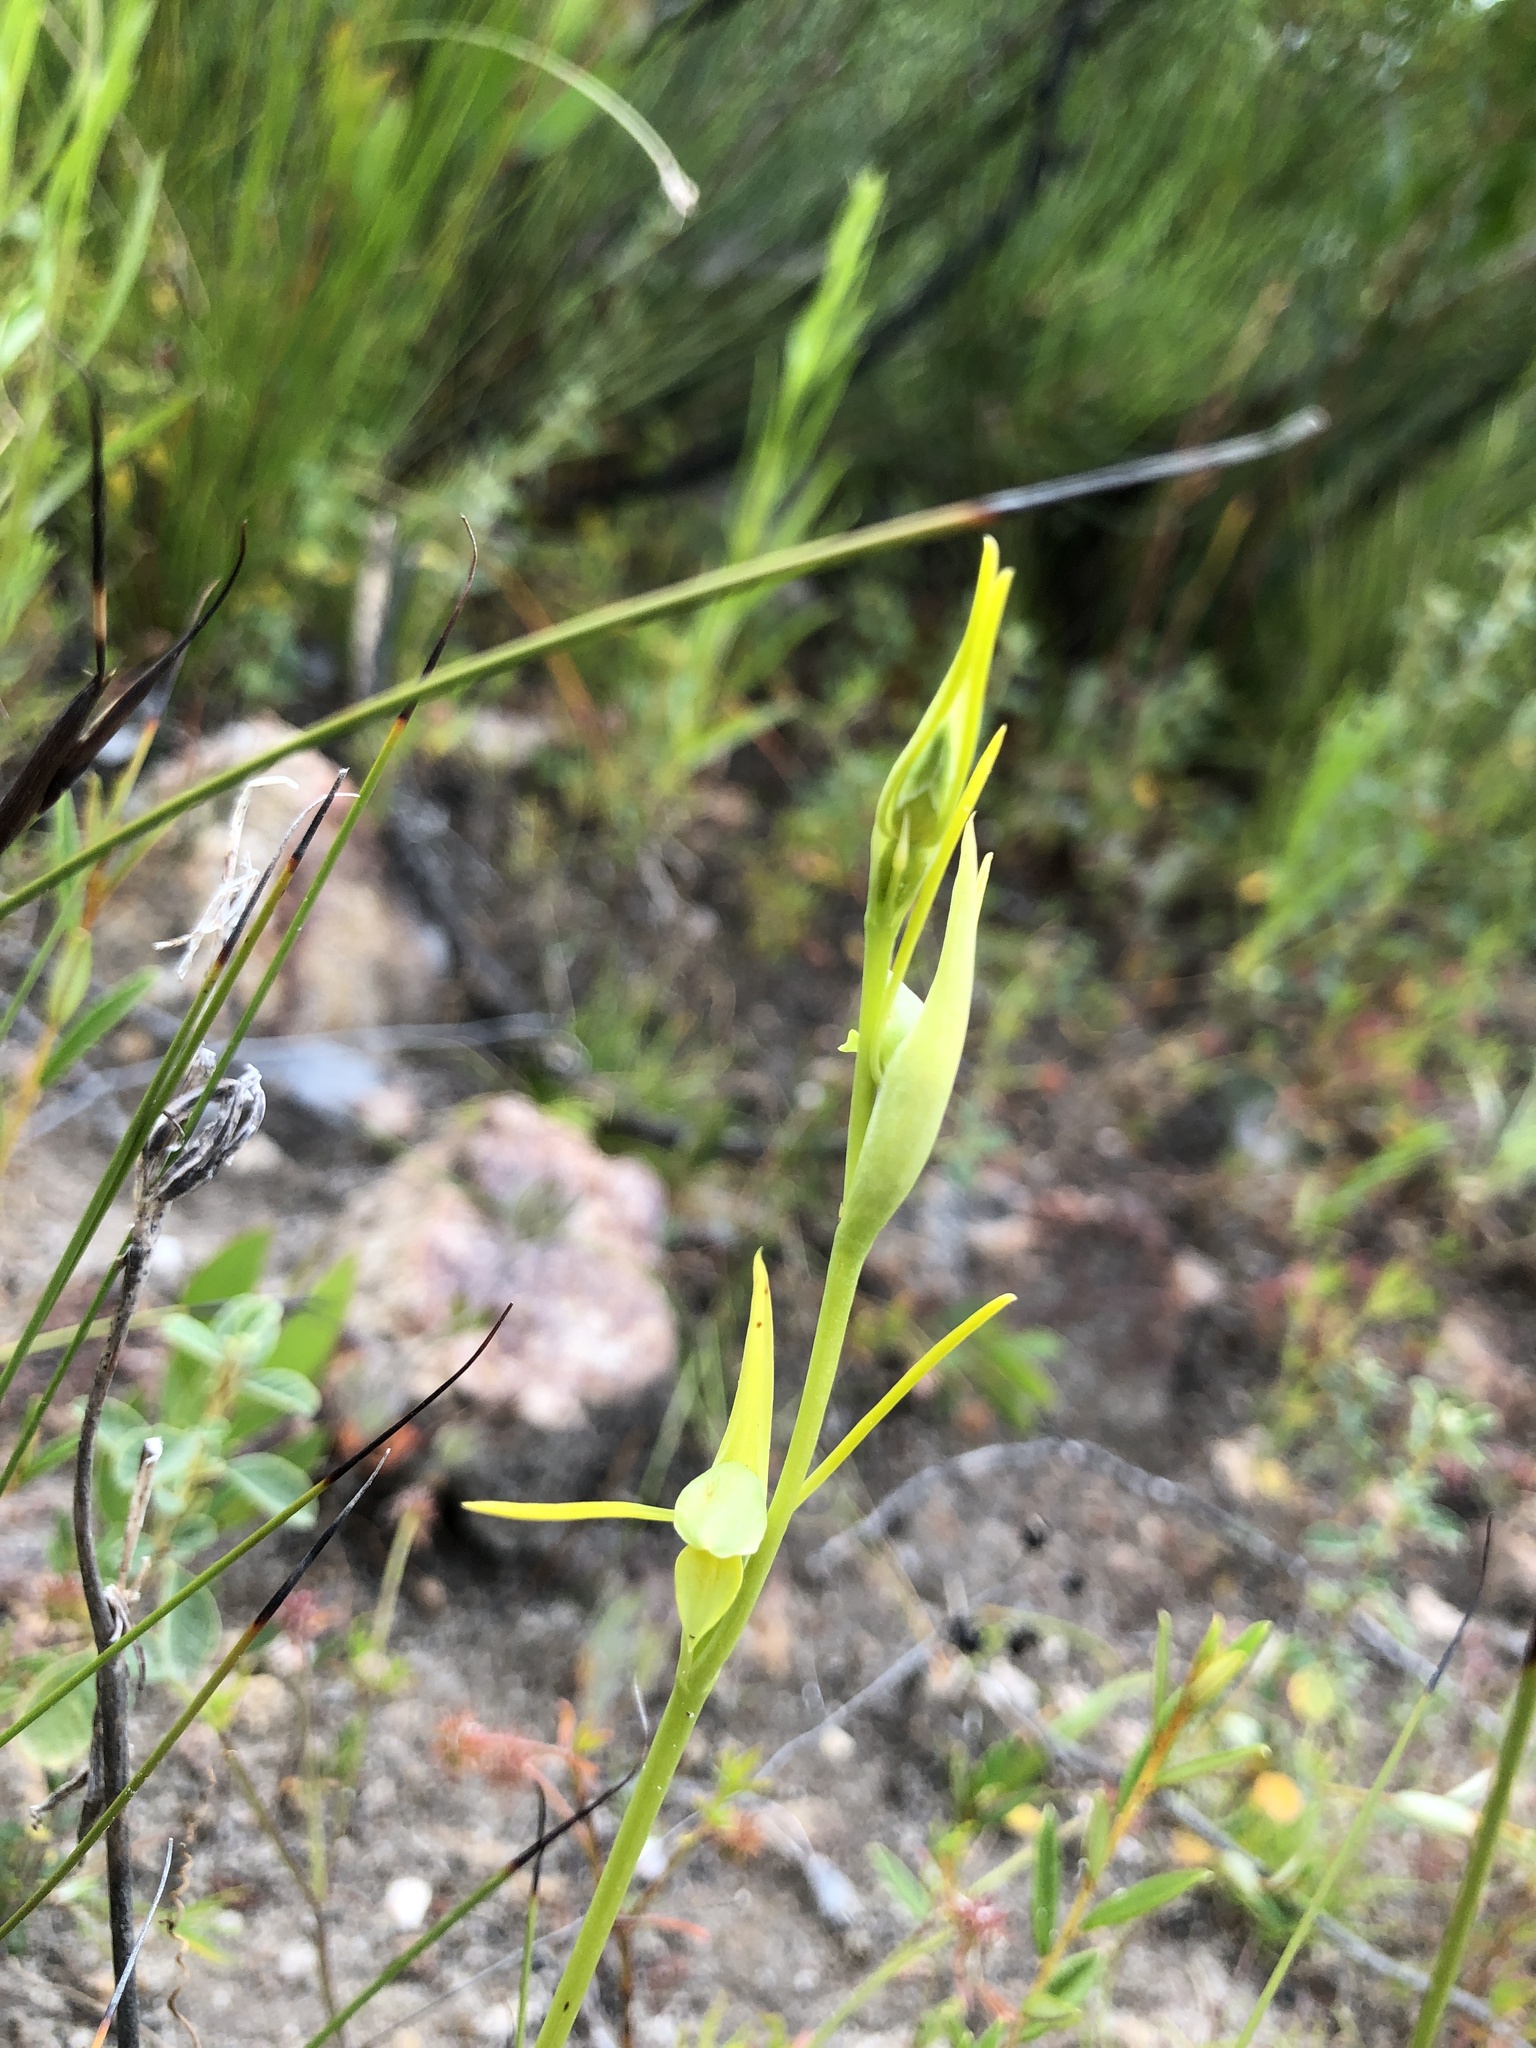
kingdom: Plantae
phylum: Tracheophyta
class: Liliopsida
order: Asparagales
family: Orchidaceae
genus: Orthoceras
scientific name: Orthoceras strictum
